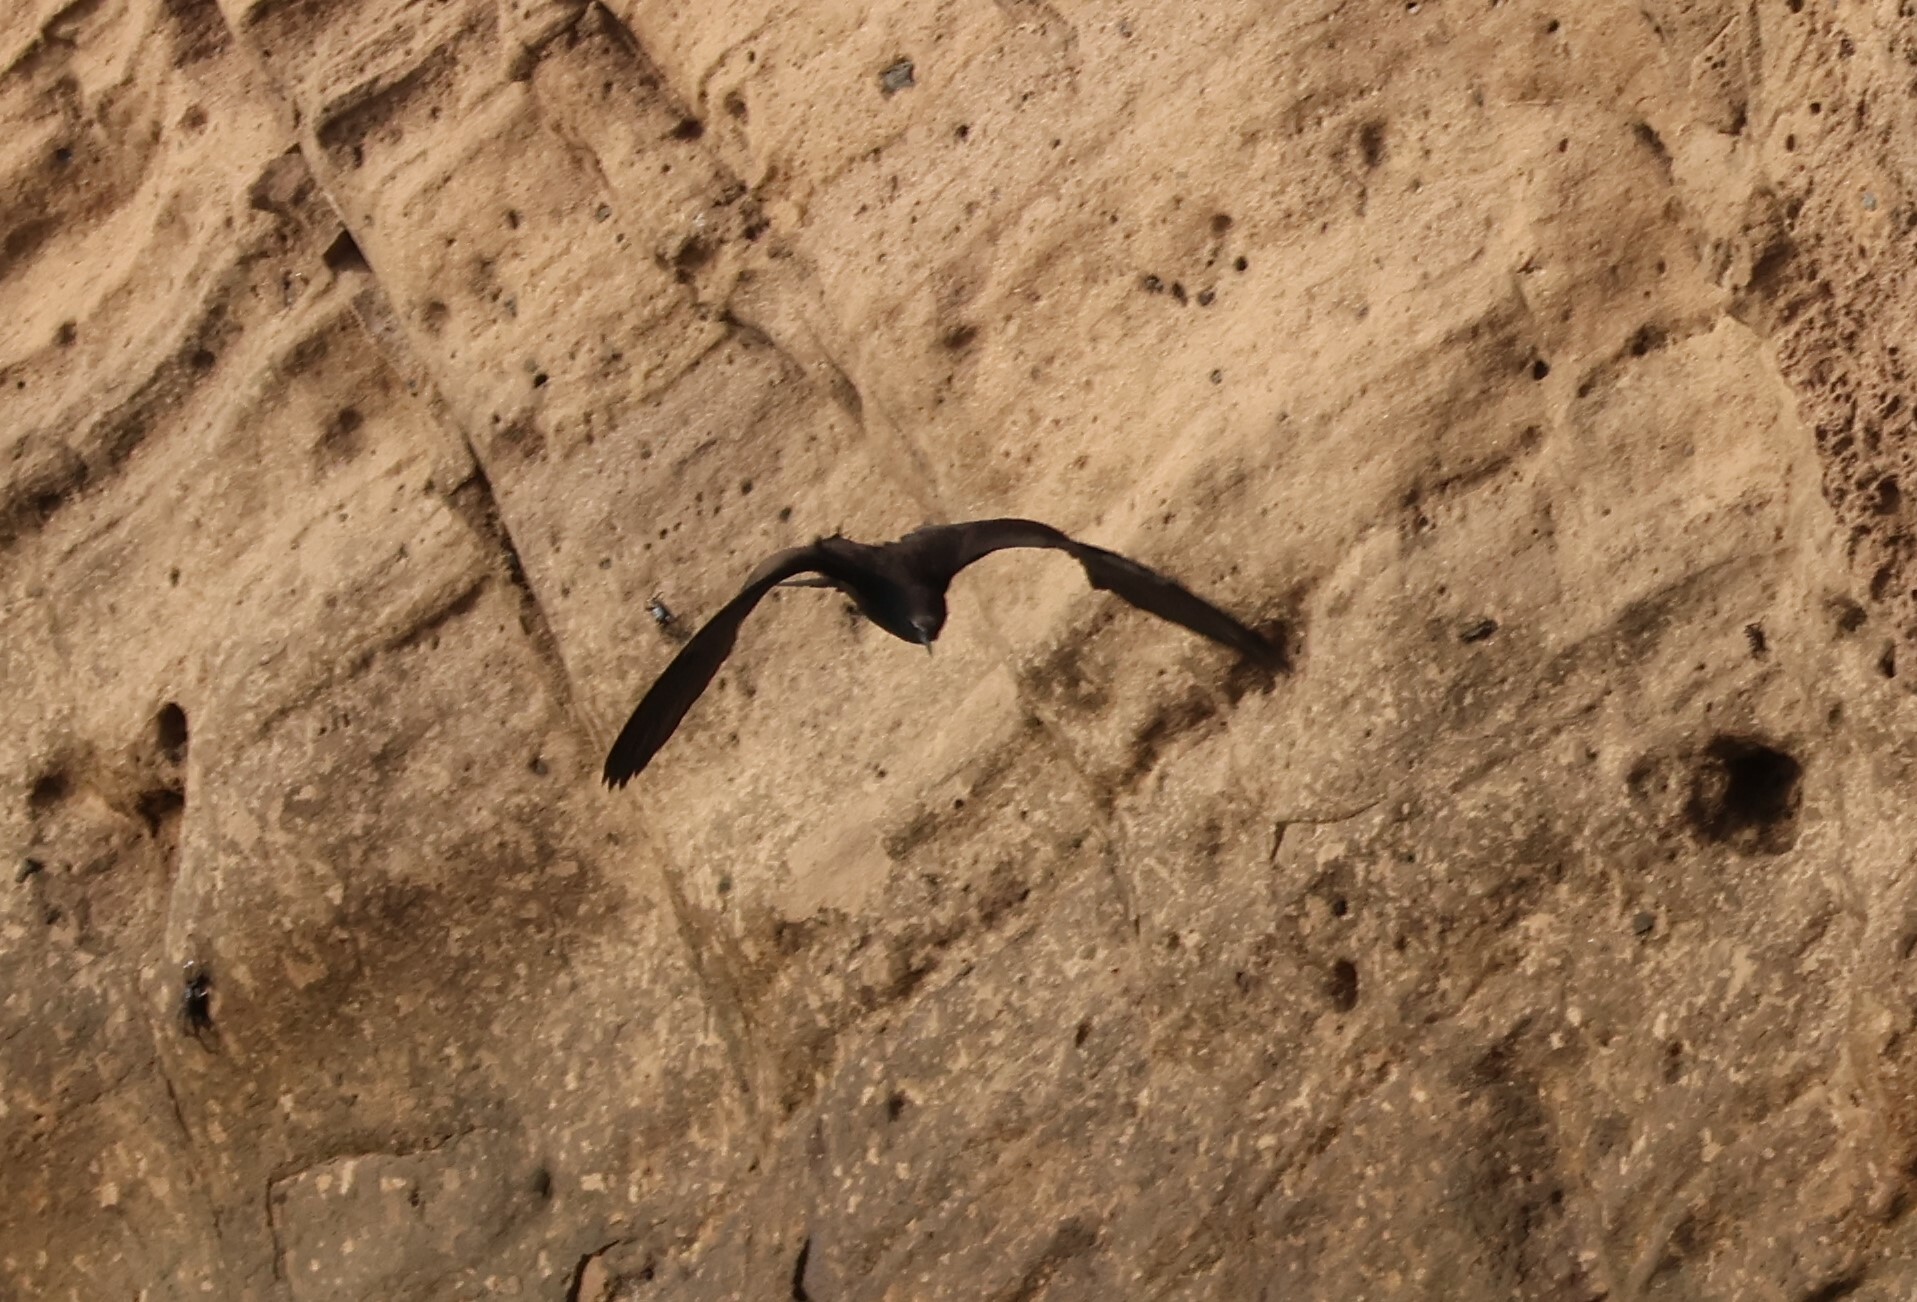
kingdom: Animalia
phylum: Chordata
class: Aves
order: Charadriiformes
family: Laridae
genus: Anous
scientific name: Anous stolidus
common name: Brown noddy
